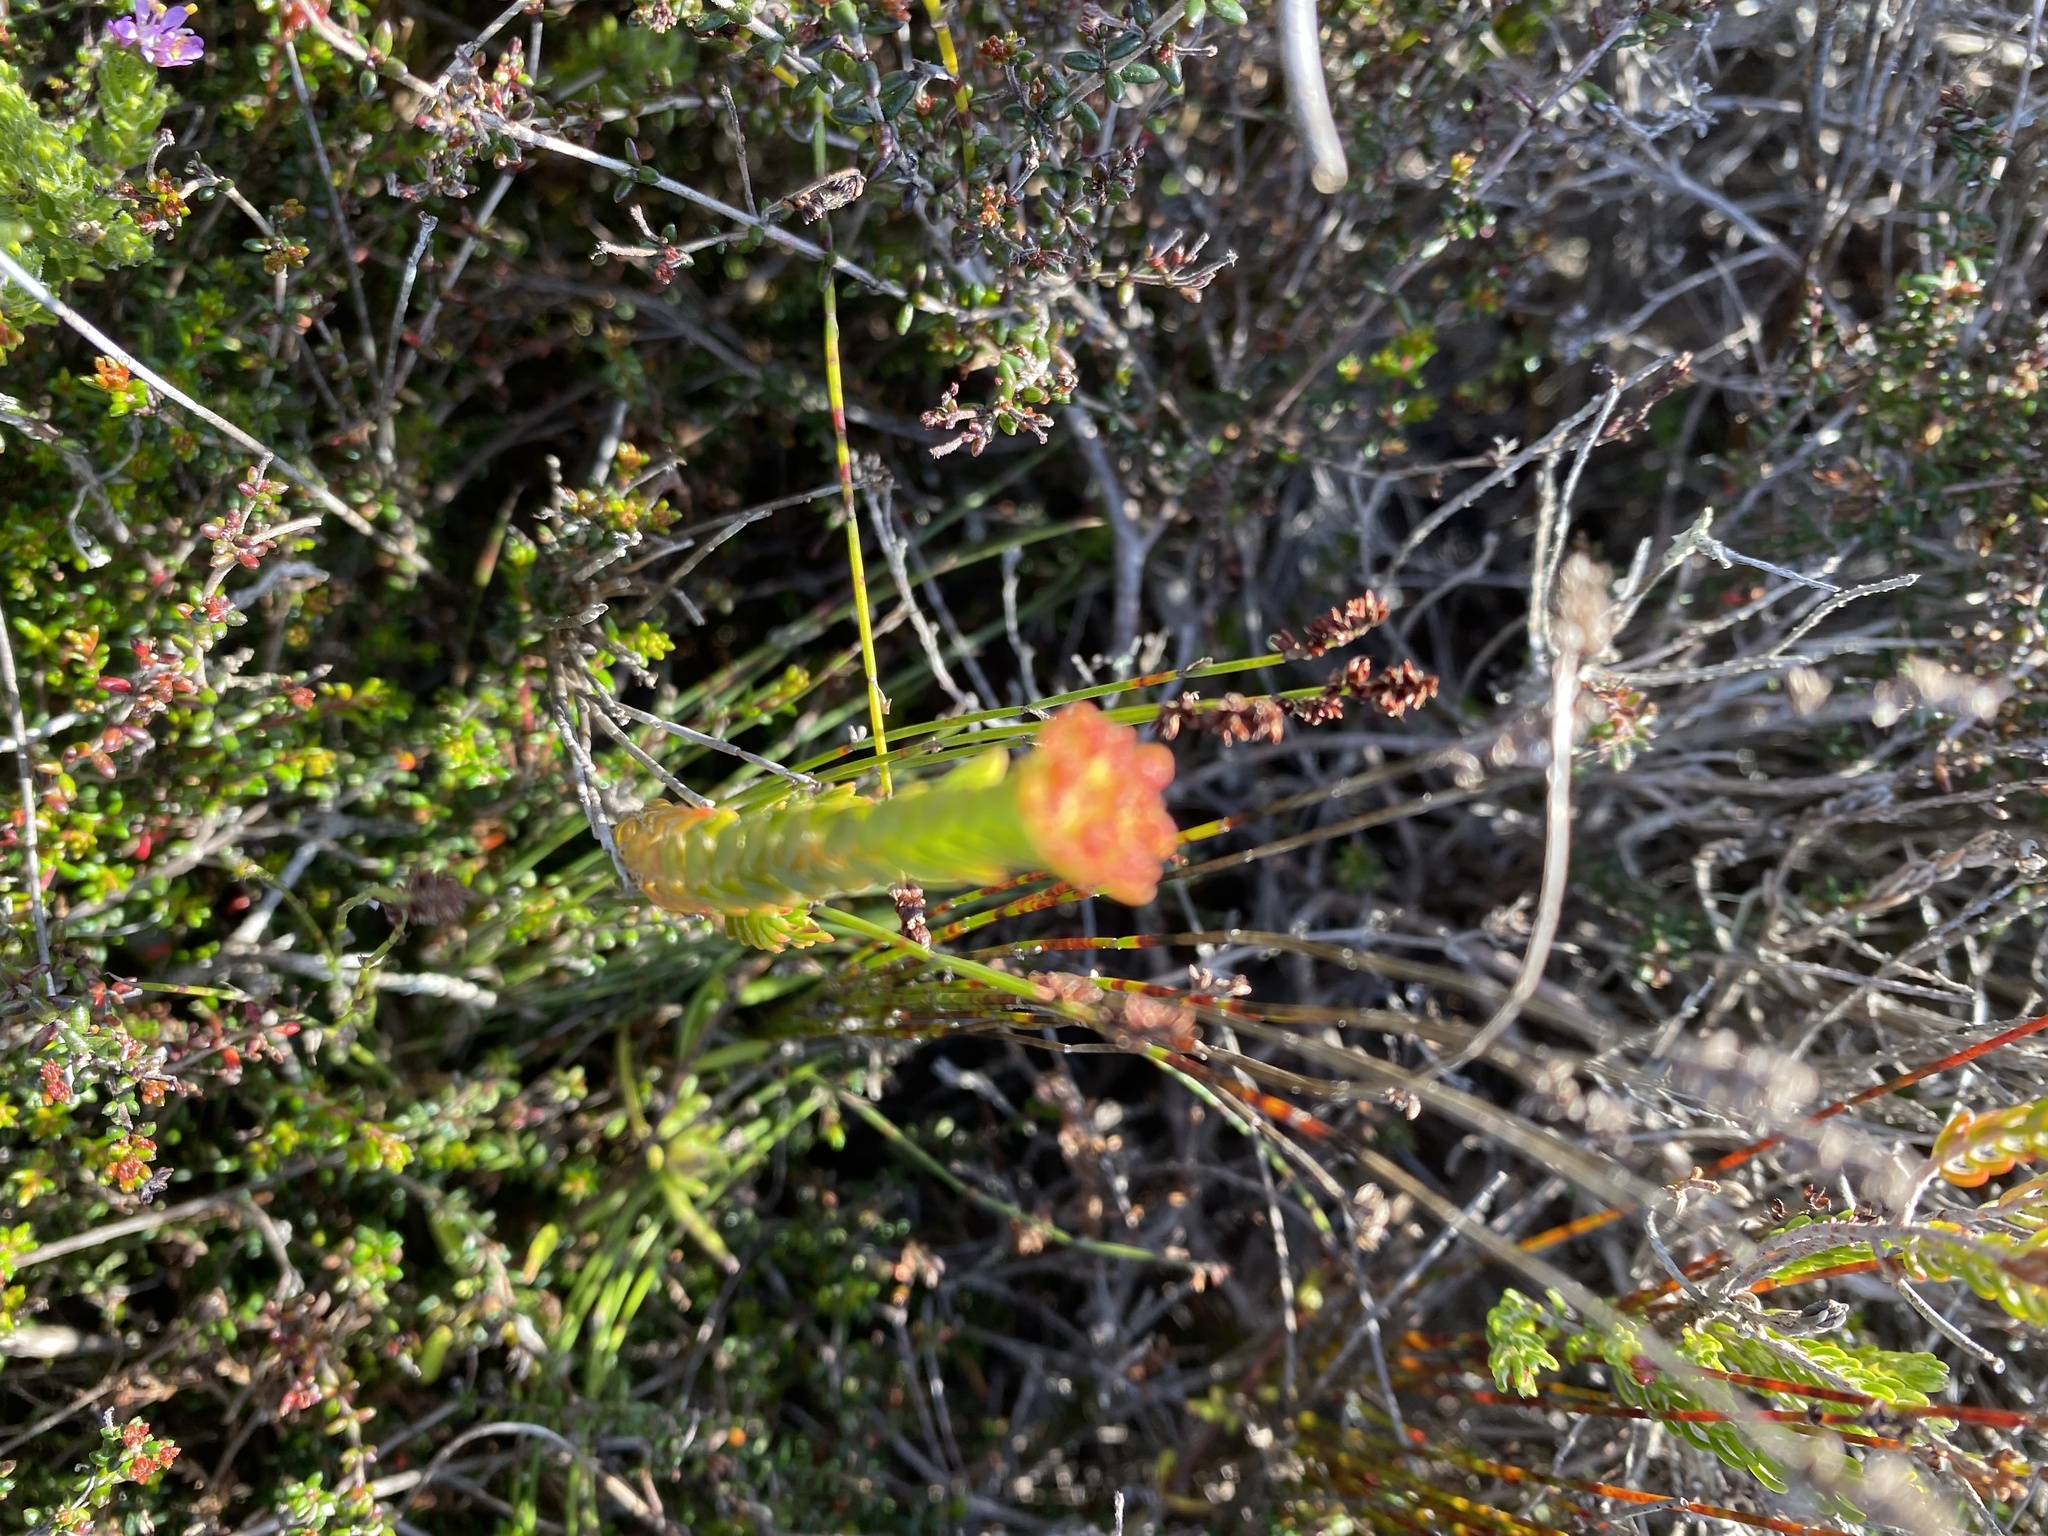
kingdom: Plantae
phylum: Tracheophyta
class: Magnoliopsida
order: Saxifragales
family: Crassulaceae
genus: Crassula
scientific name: Crassula subulata
